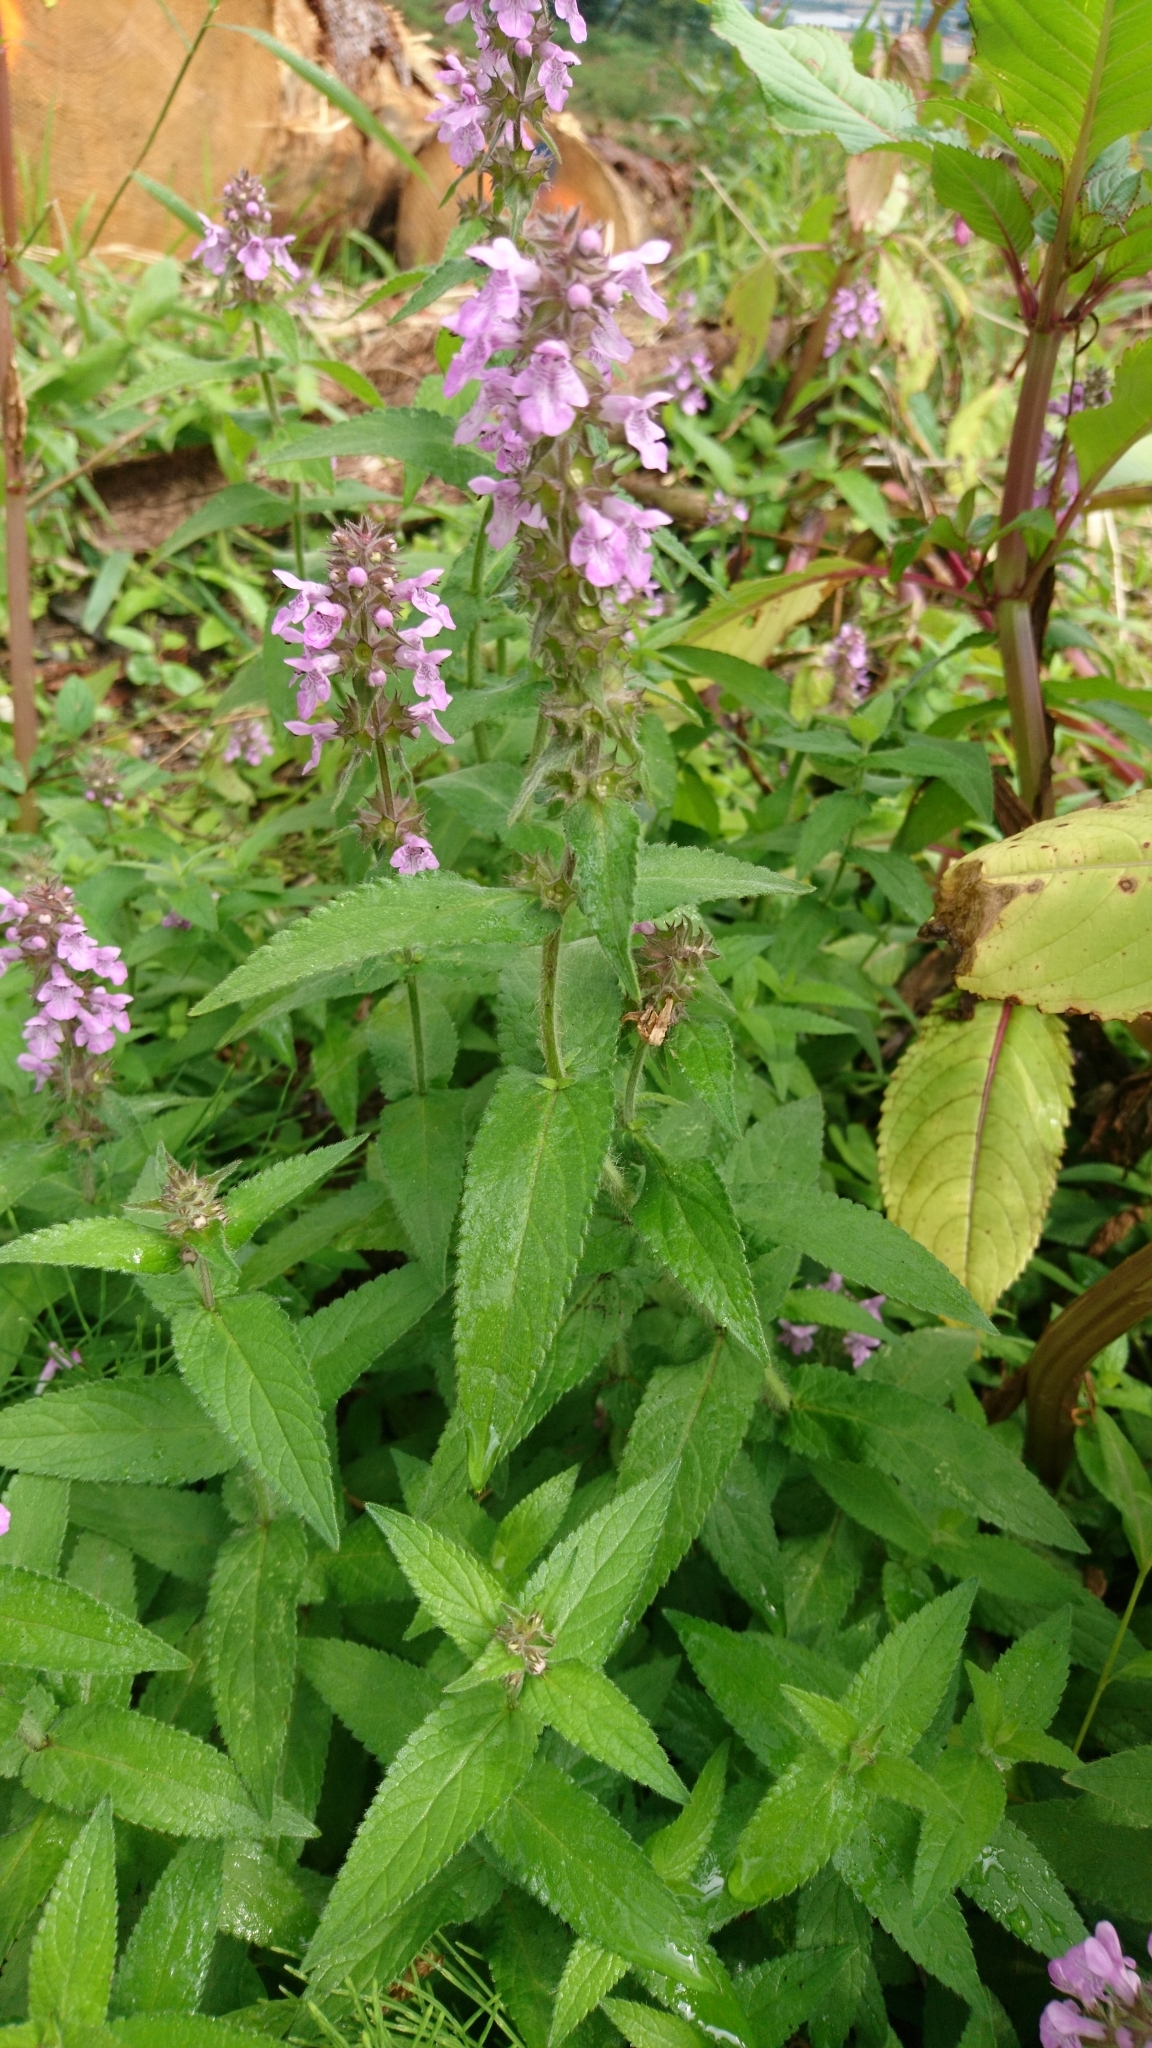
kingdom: Plantae
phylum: Tracheophyta
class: Magnoliopsida
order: Lamiales
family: Lamiaceae
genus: Stachys
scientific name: Stachys palustris
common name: Marsh woundwort
